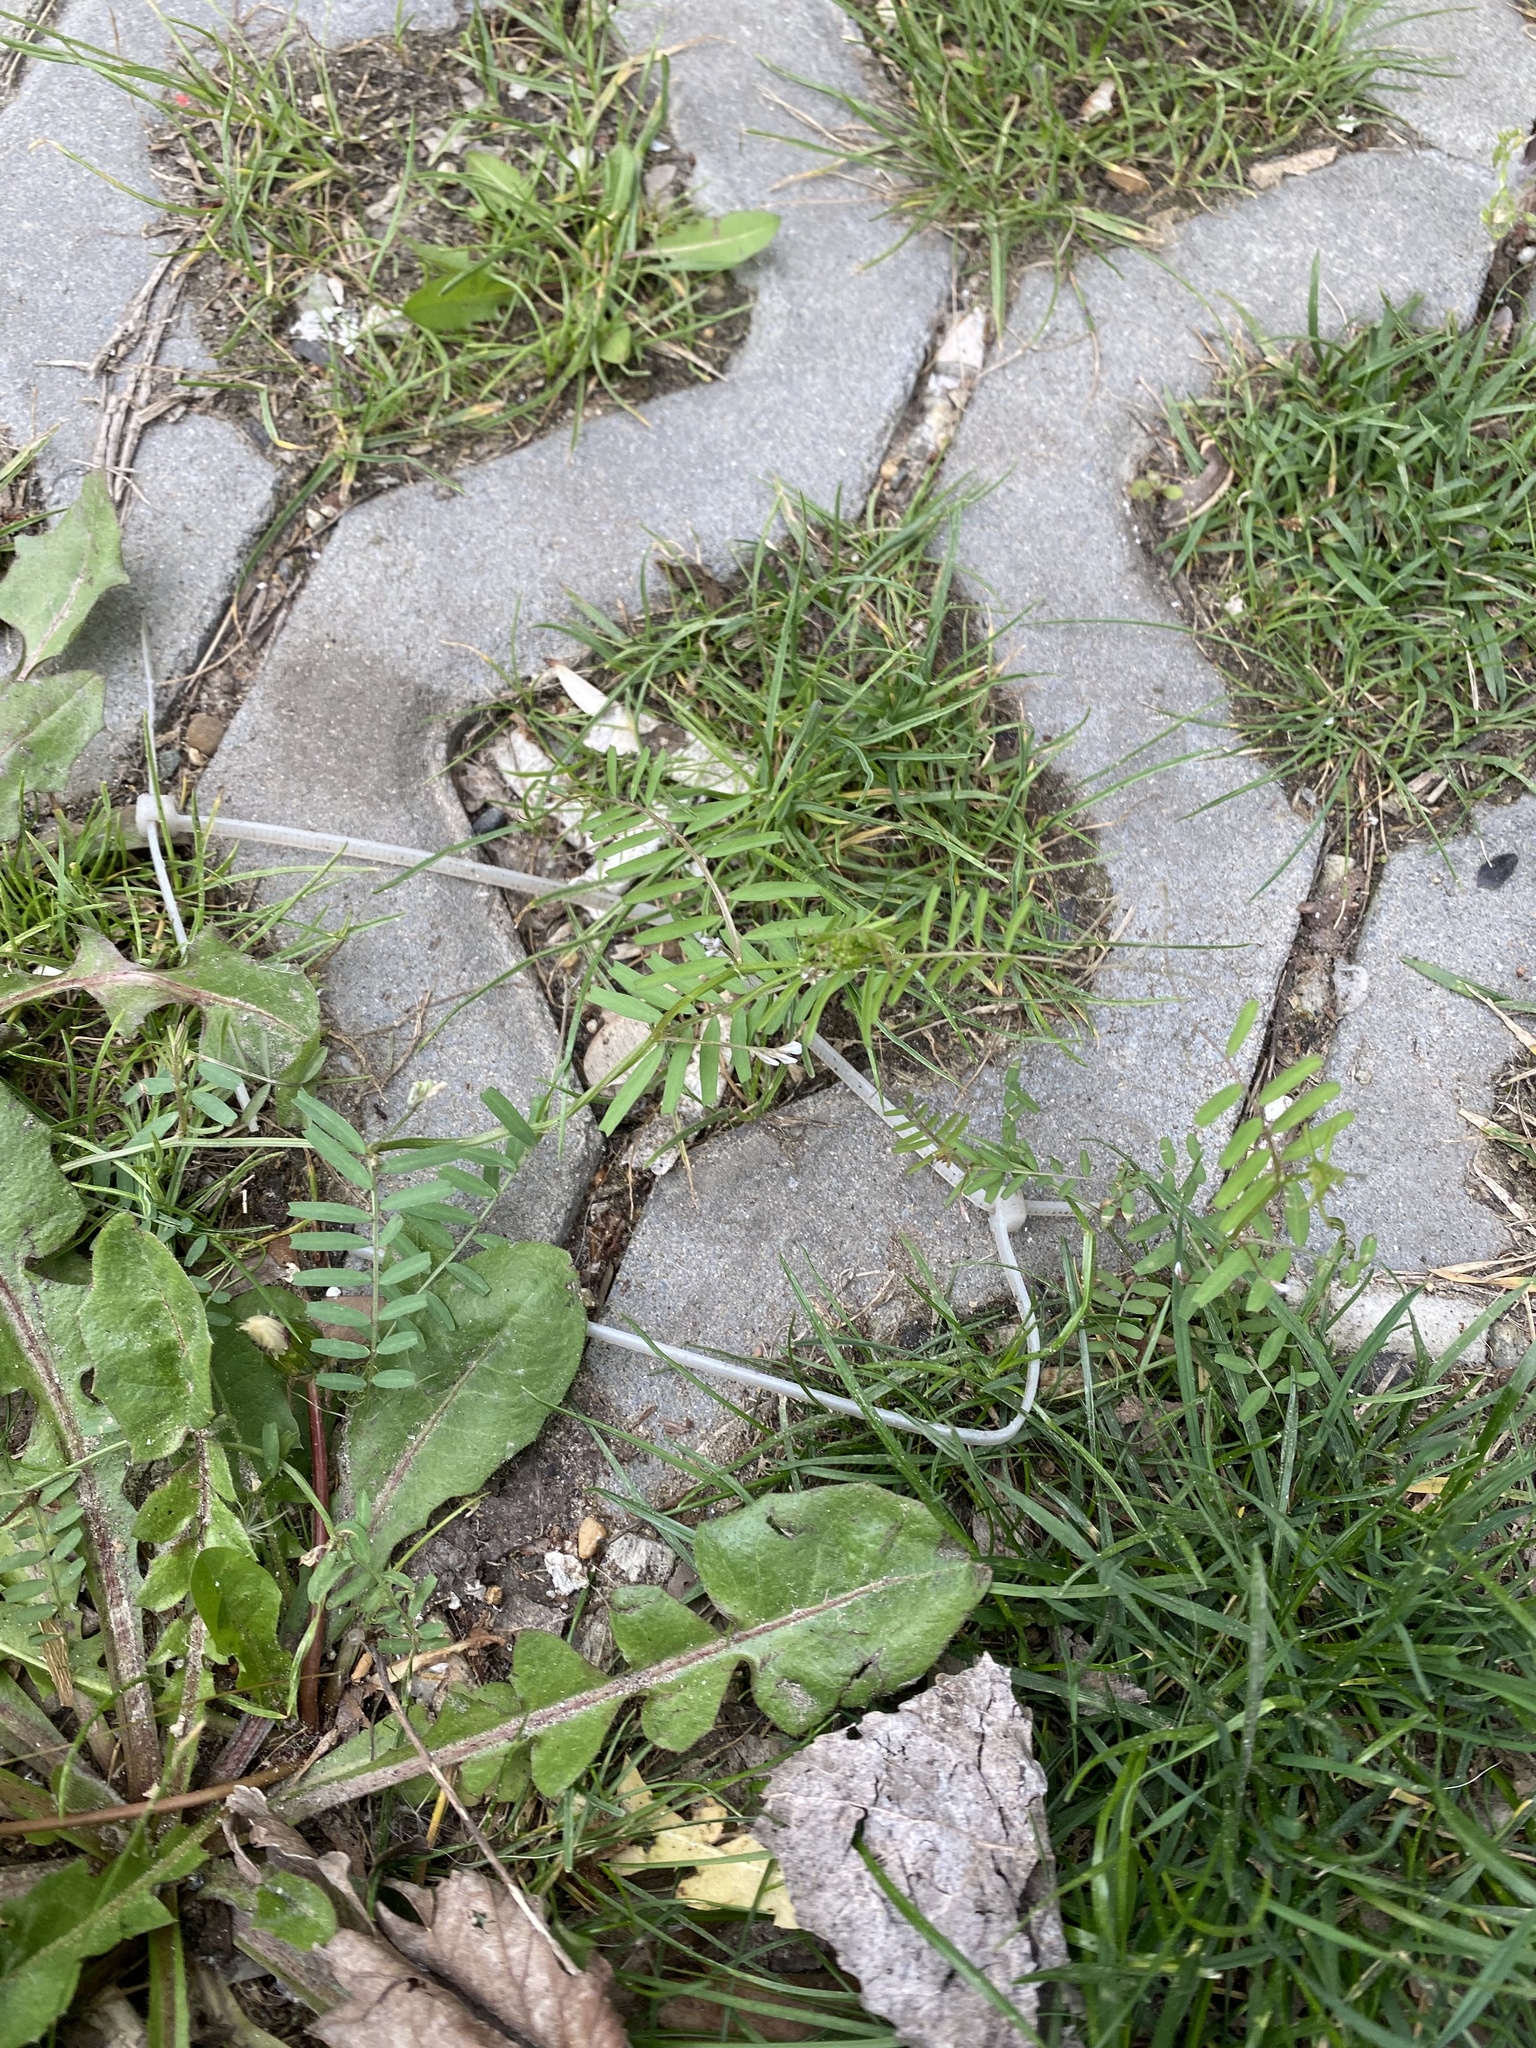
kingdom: Plantae
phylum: Tracheophyta
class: Magnoliopsida
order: Fabales
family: Fabaceae
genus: Vicia
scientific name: Vicia hirsuta
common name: Tiny vetch
